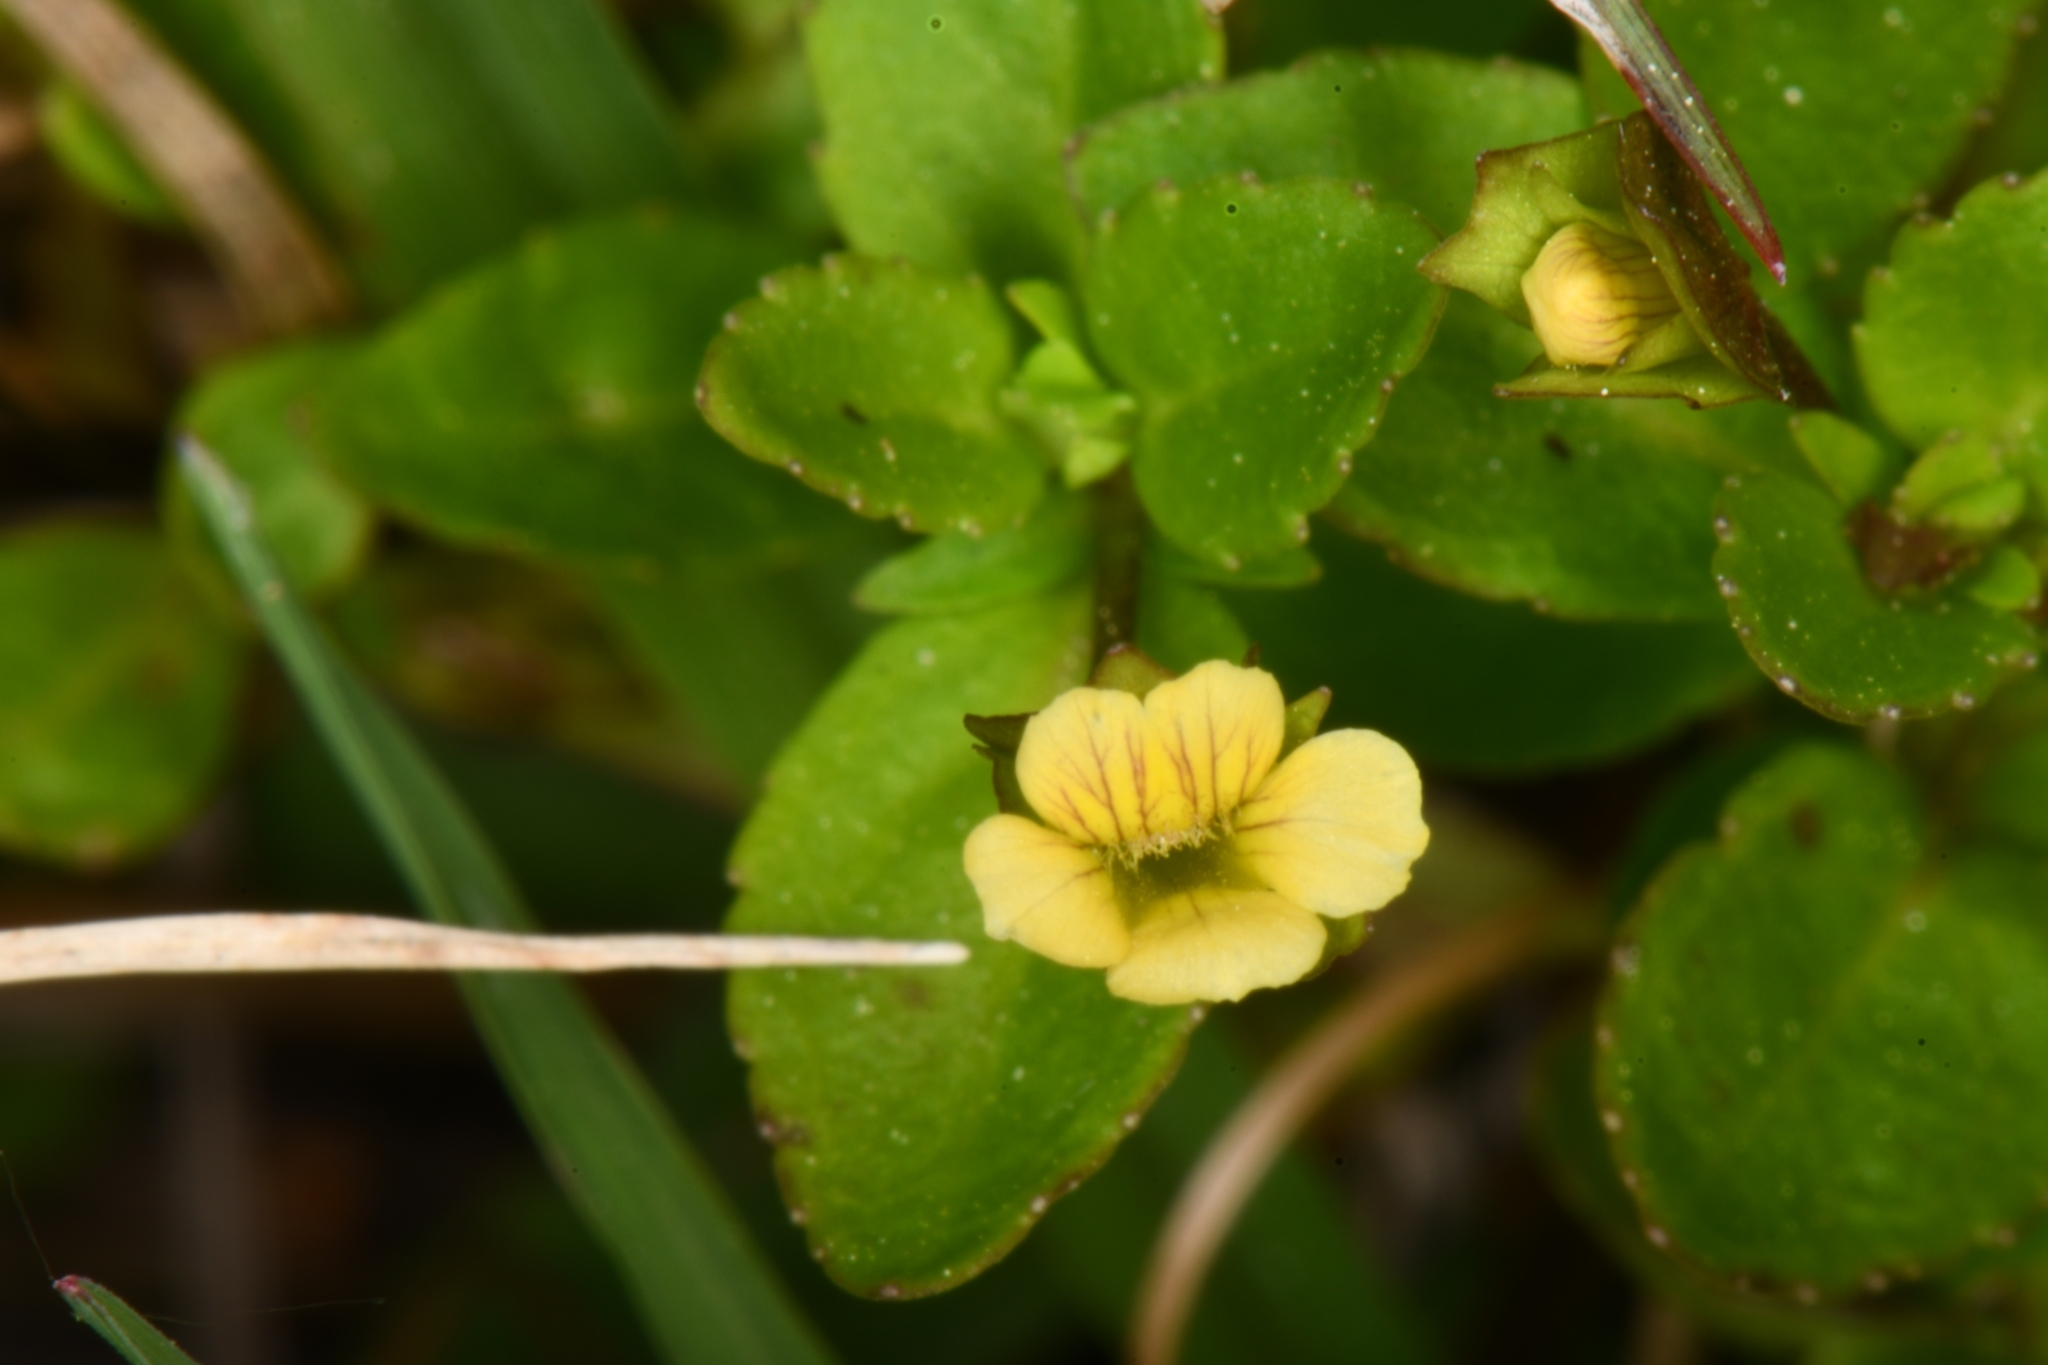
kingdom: Plantae
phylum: Tracheophyta
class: Magnoliopsida
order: Lamiales
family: Plantaginaceae
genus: Mecardonia
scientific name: Mecardonia procumbens
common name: Baby jump-up
